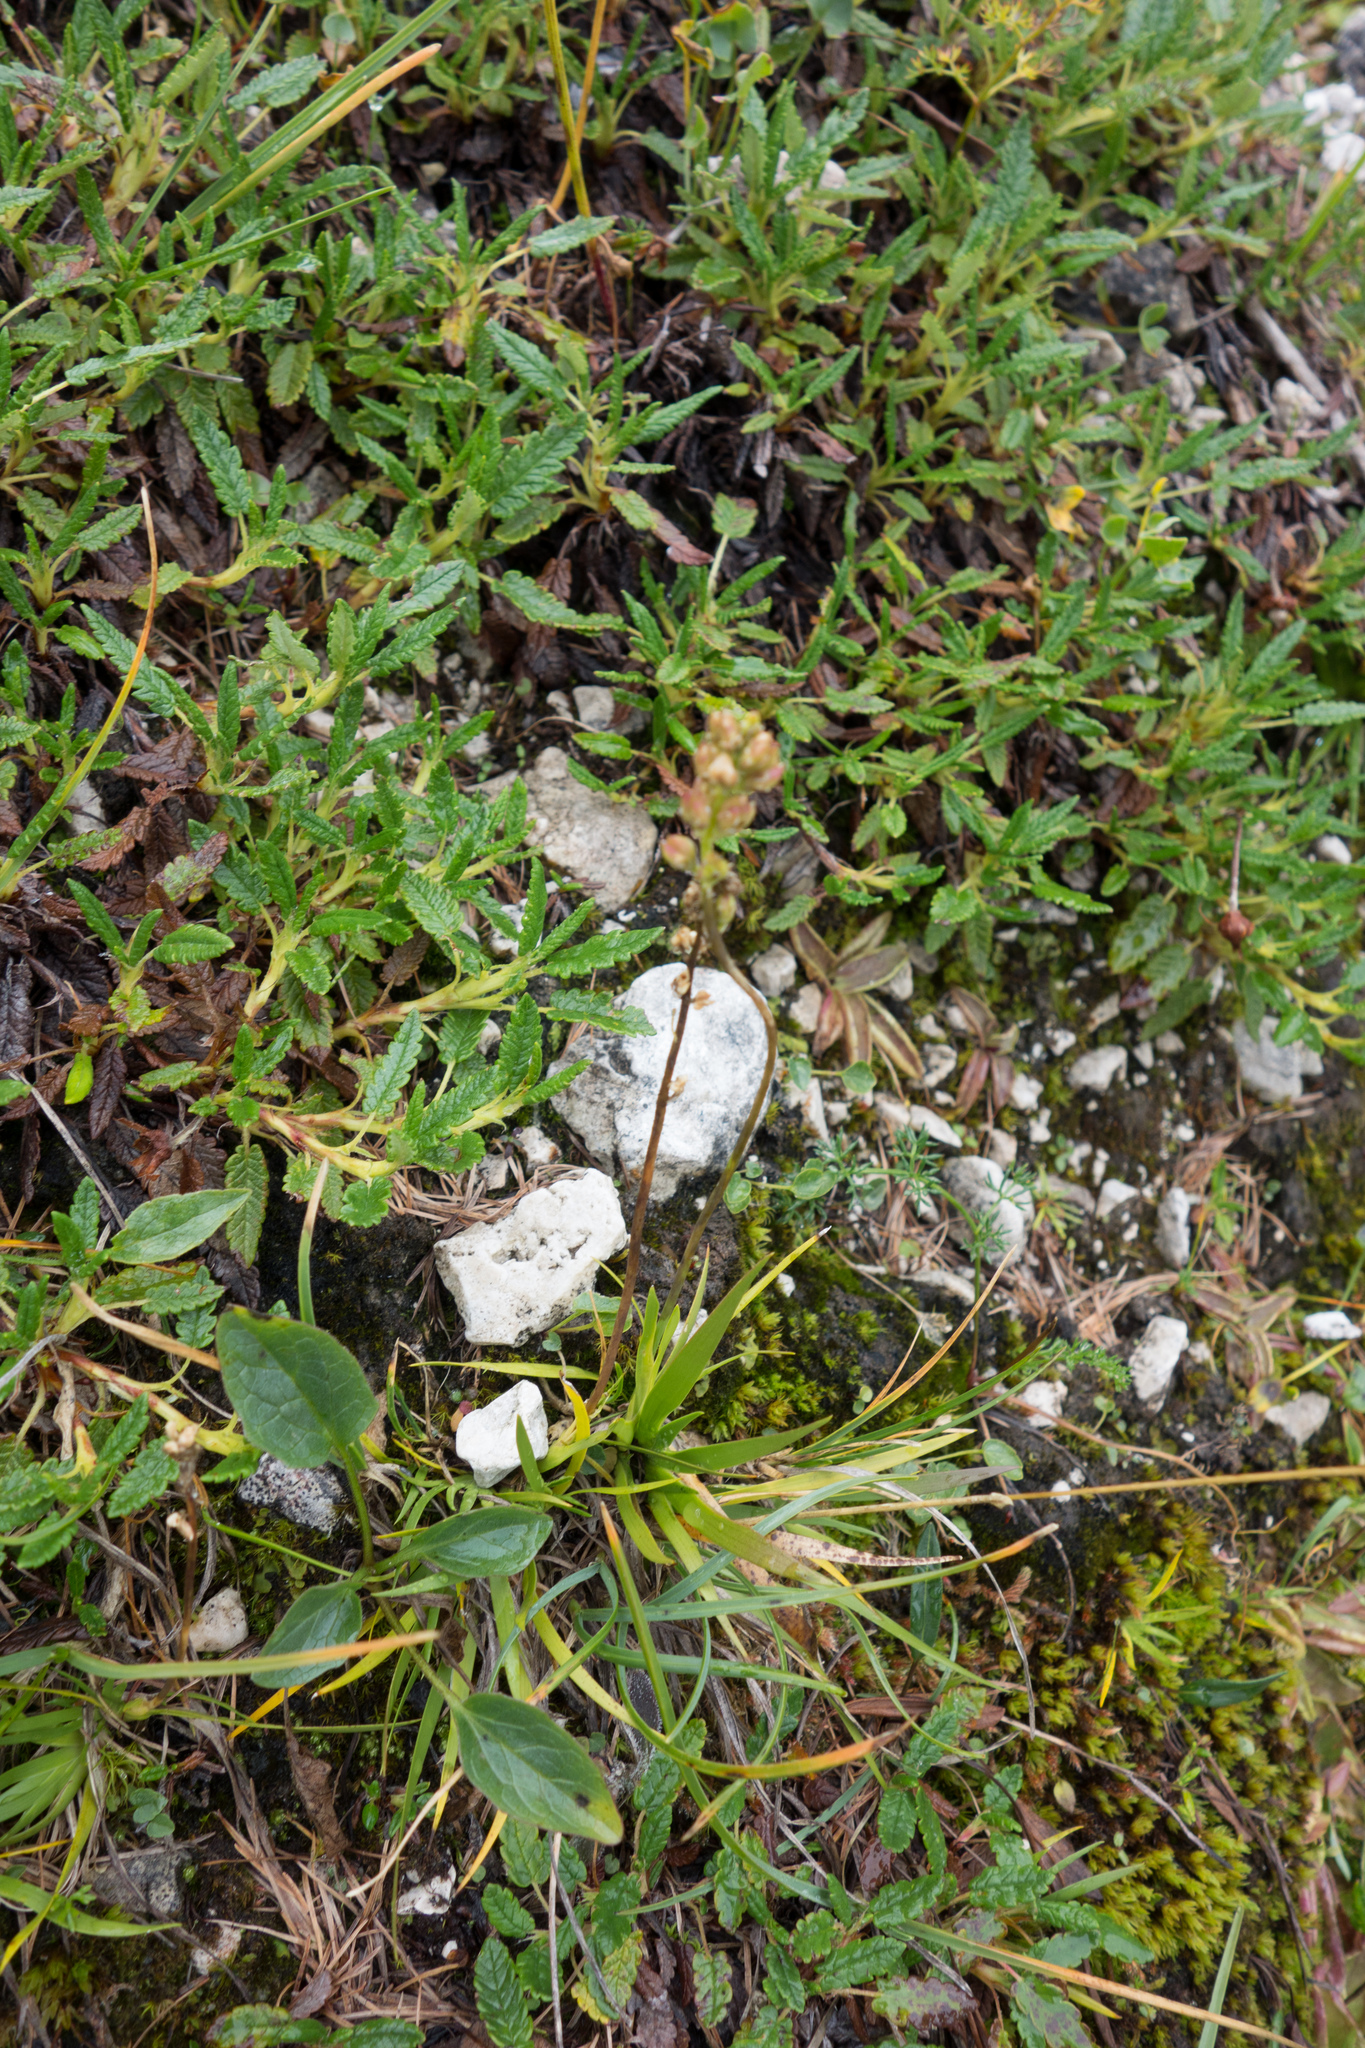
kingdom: Plantae
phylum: Tracheophyta
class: Liliopsida
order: Alismatales
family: Tofieldiaceae
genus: Tofieldia
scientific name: Tofieldia calyculata
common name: German-asphodel
